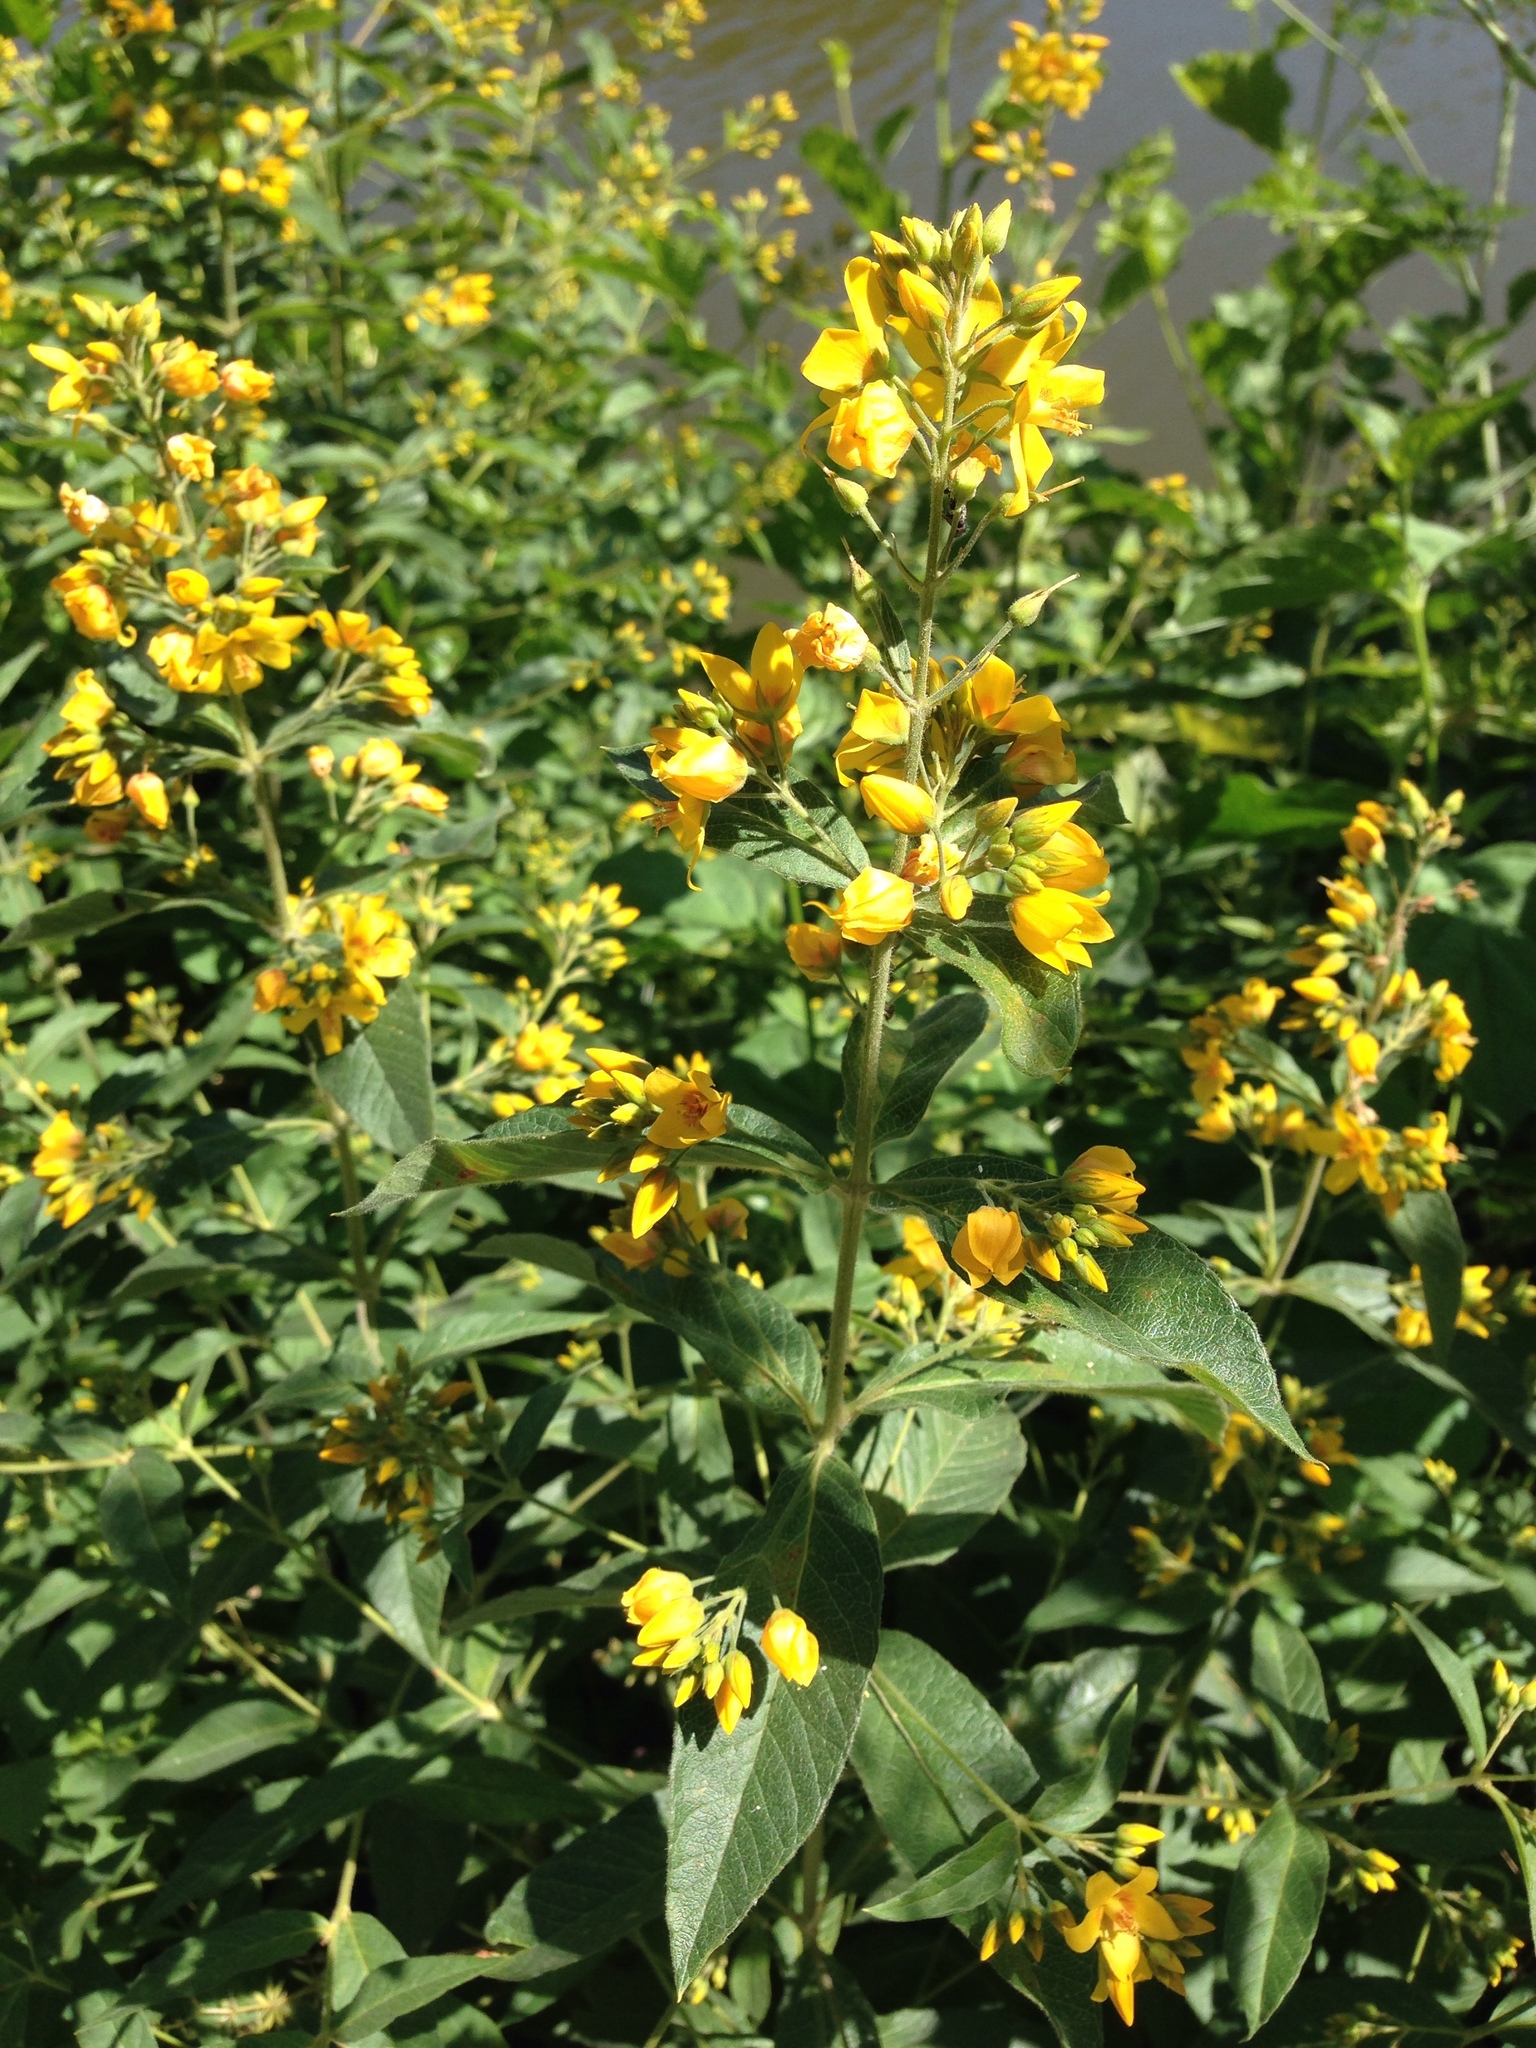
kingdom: Plantae
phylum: Tracheophyta
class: Magnoliopsida
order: Ericales
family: Primulaceae
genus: Lysimachia
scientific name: Lysimachia vulgaris
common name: Yellow loosestrife
